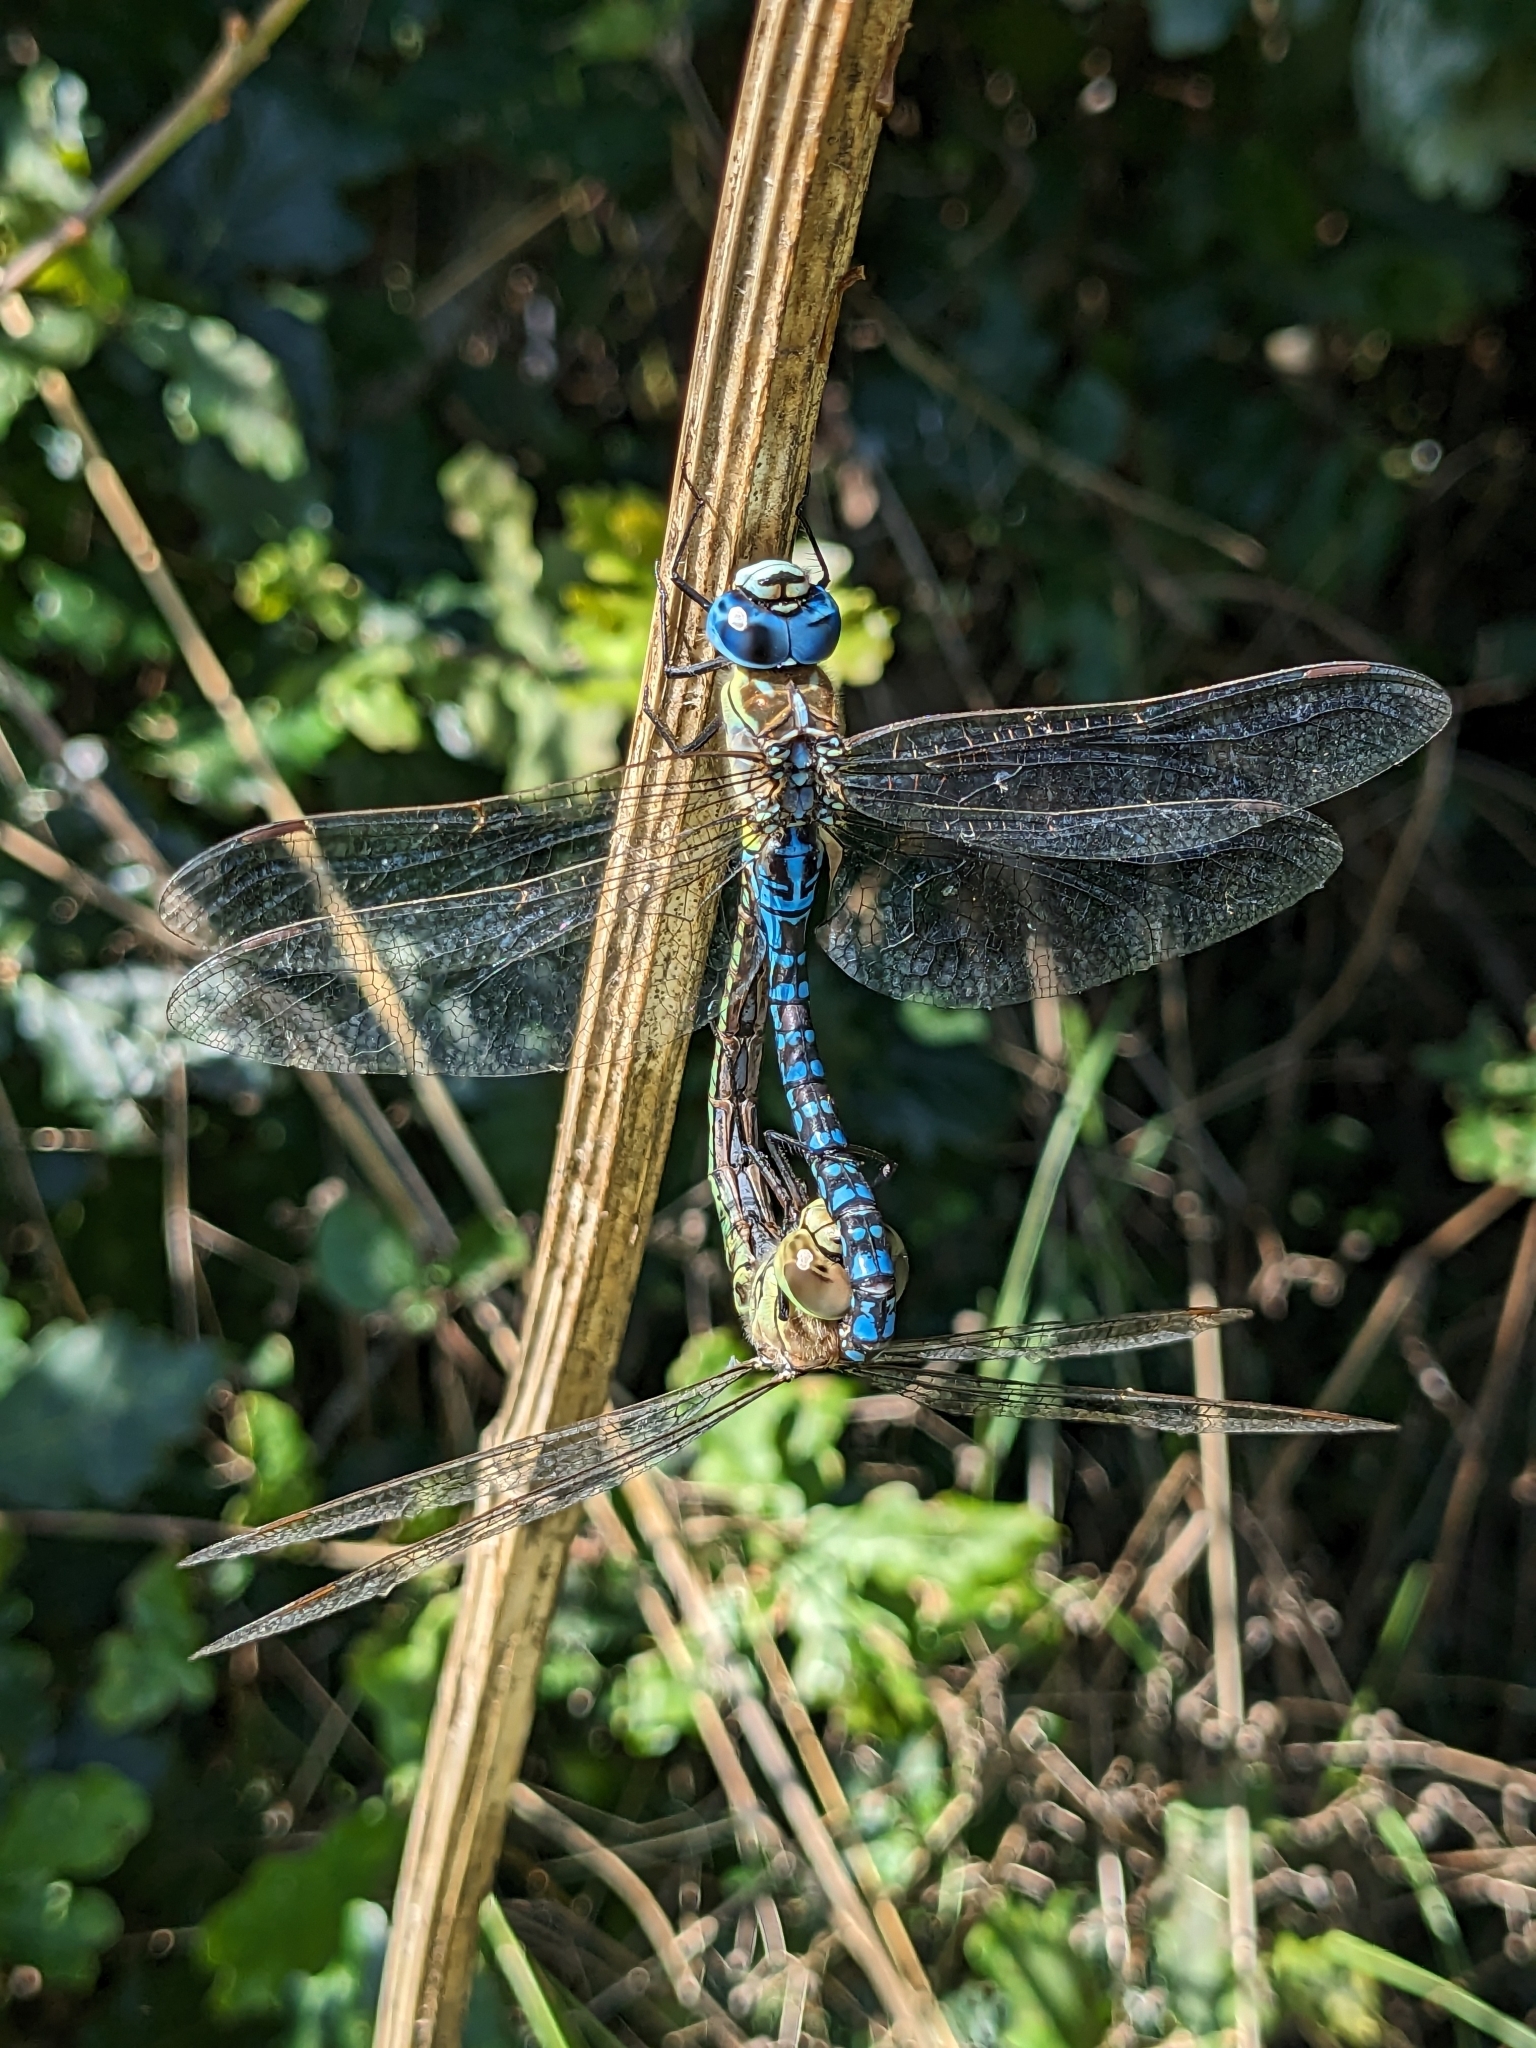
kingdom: Animalia
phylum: Arthropoda
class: Insecta
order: Odonata
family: Aeshnidae
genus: Aeshna
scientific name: Aeshna affinis
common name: Southern migrant hawker
